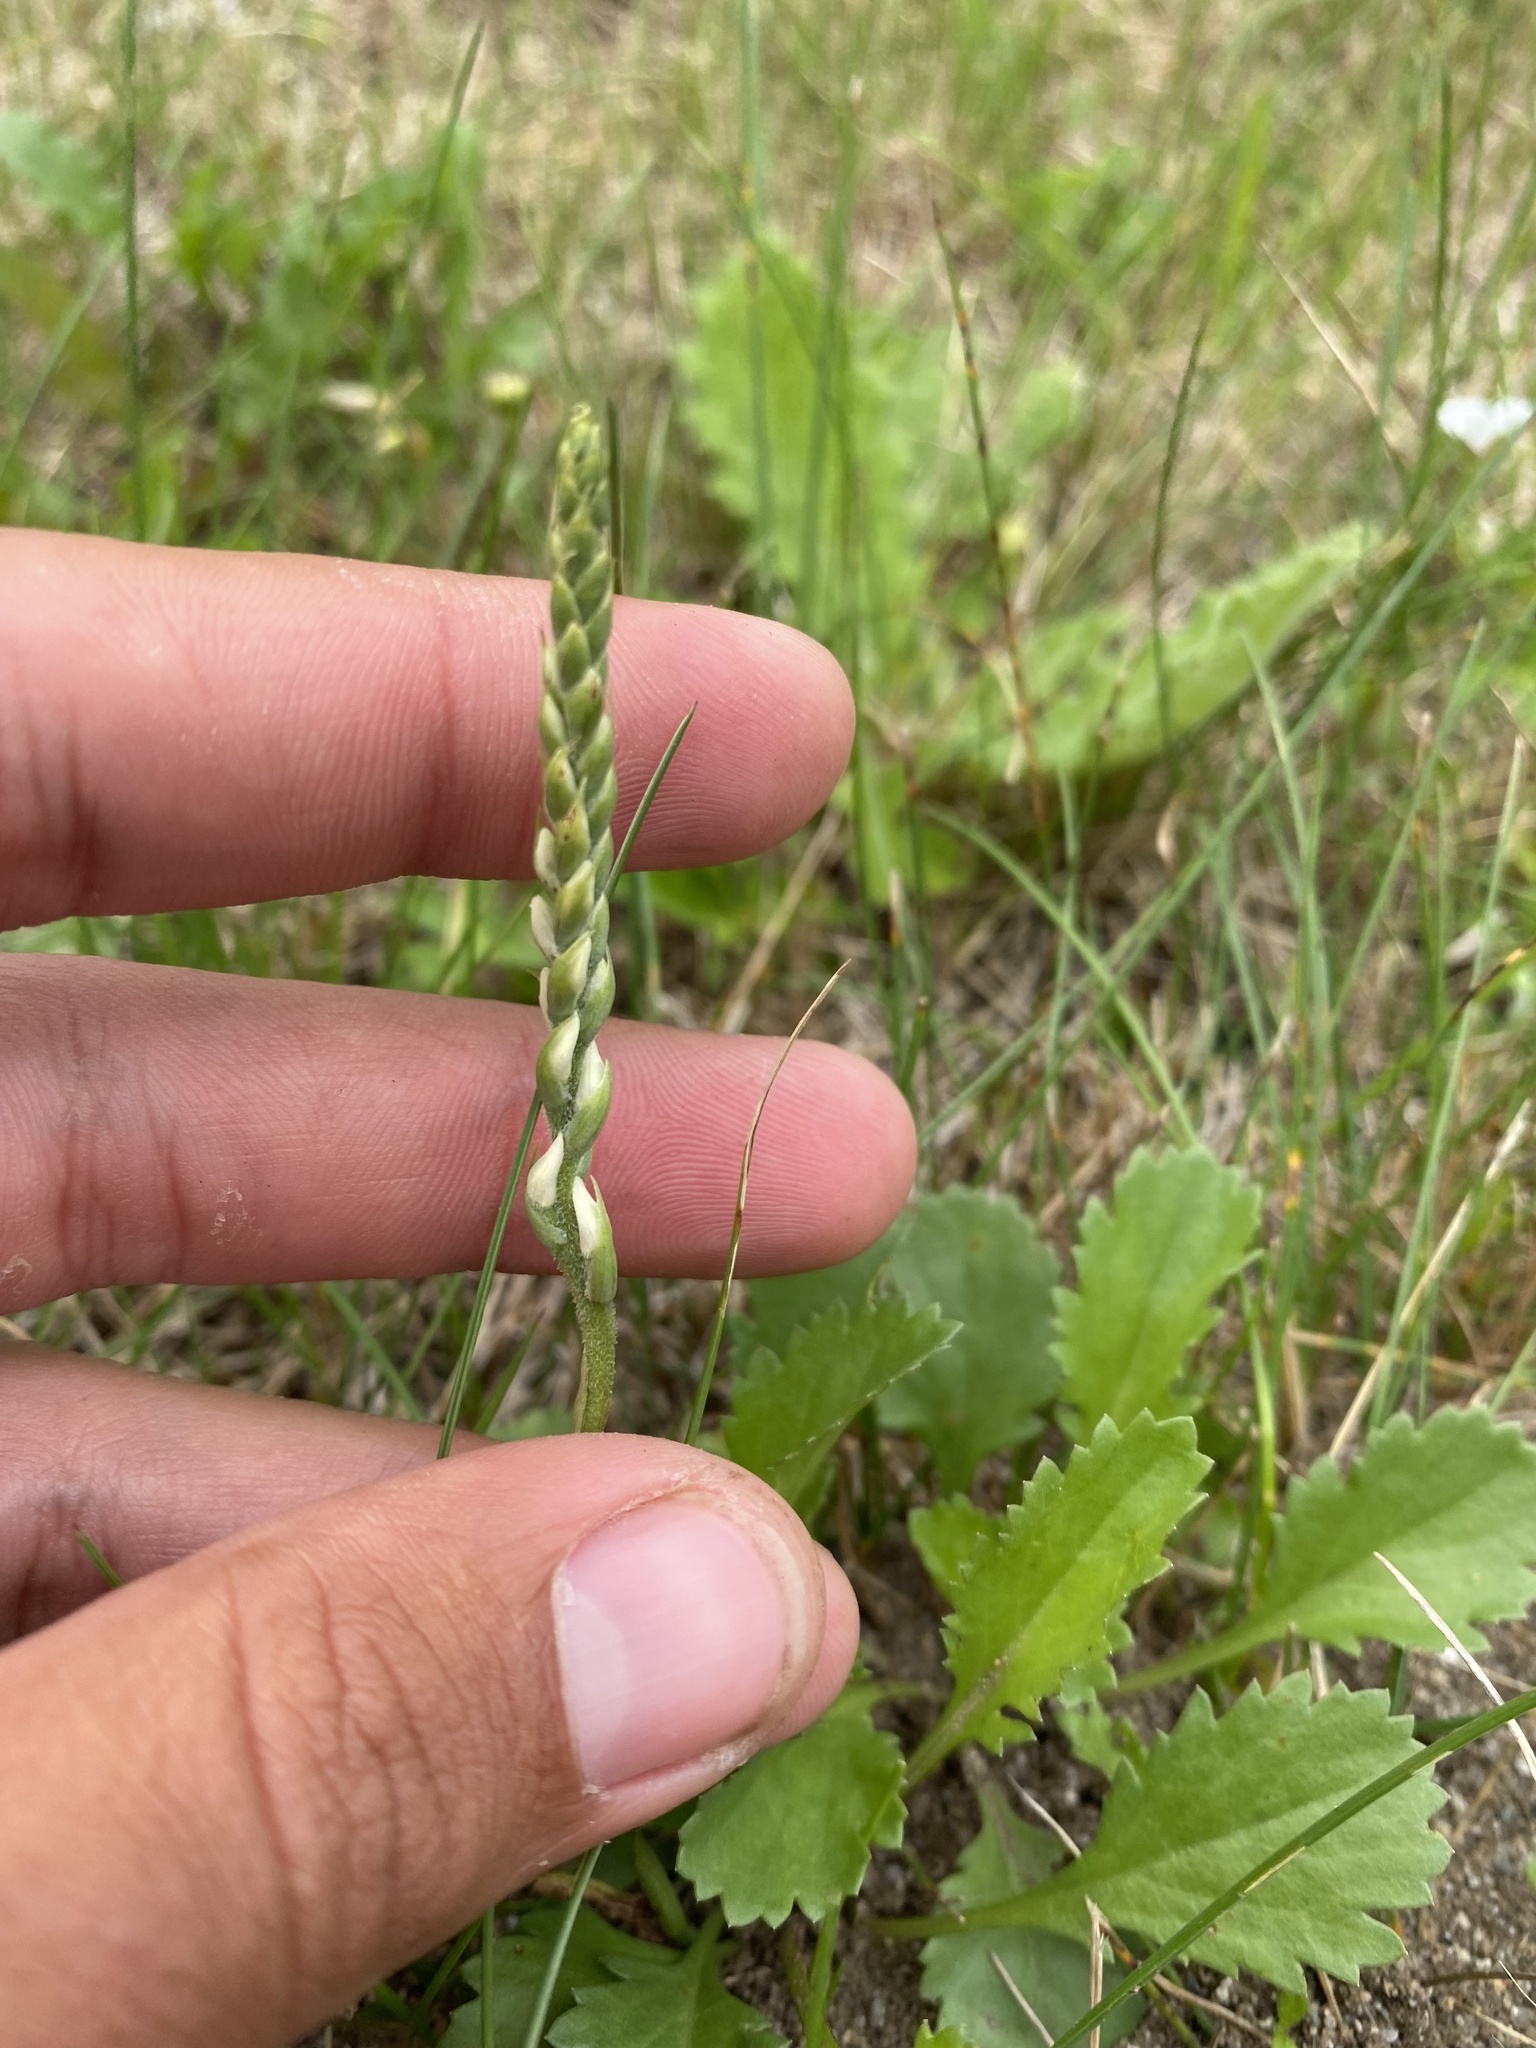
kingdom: Plantae
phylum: Tracheophyta
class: Liliopsida
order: Asparagales
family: Orchidaceae
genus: Spiranthes
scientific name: Spiranthes australis
